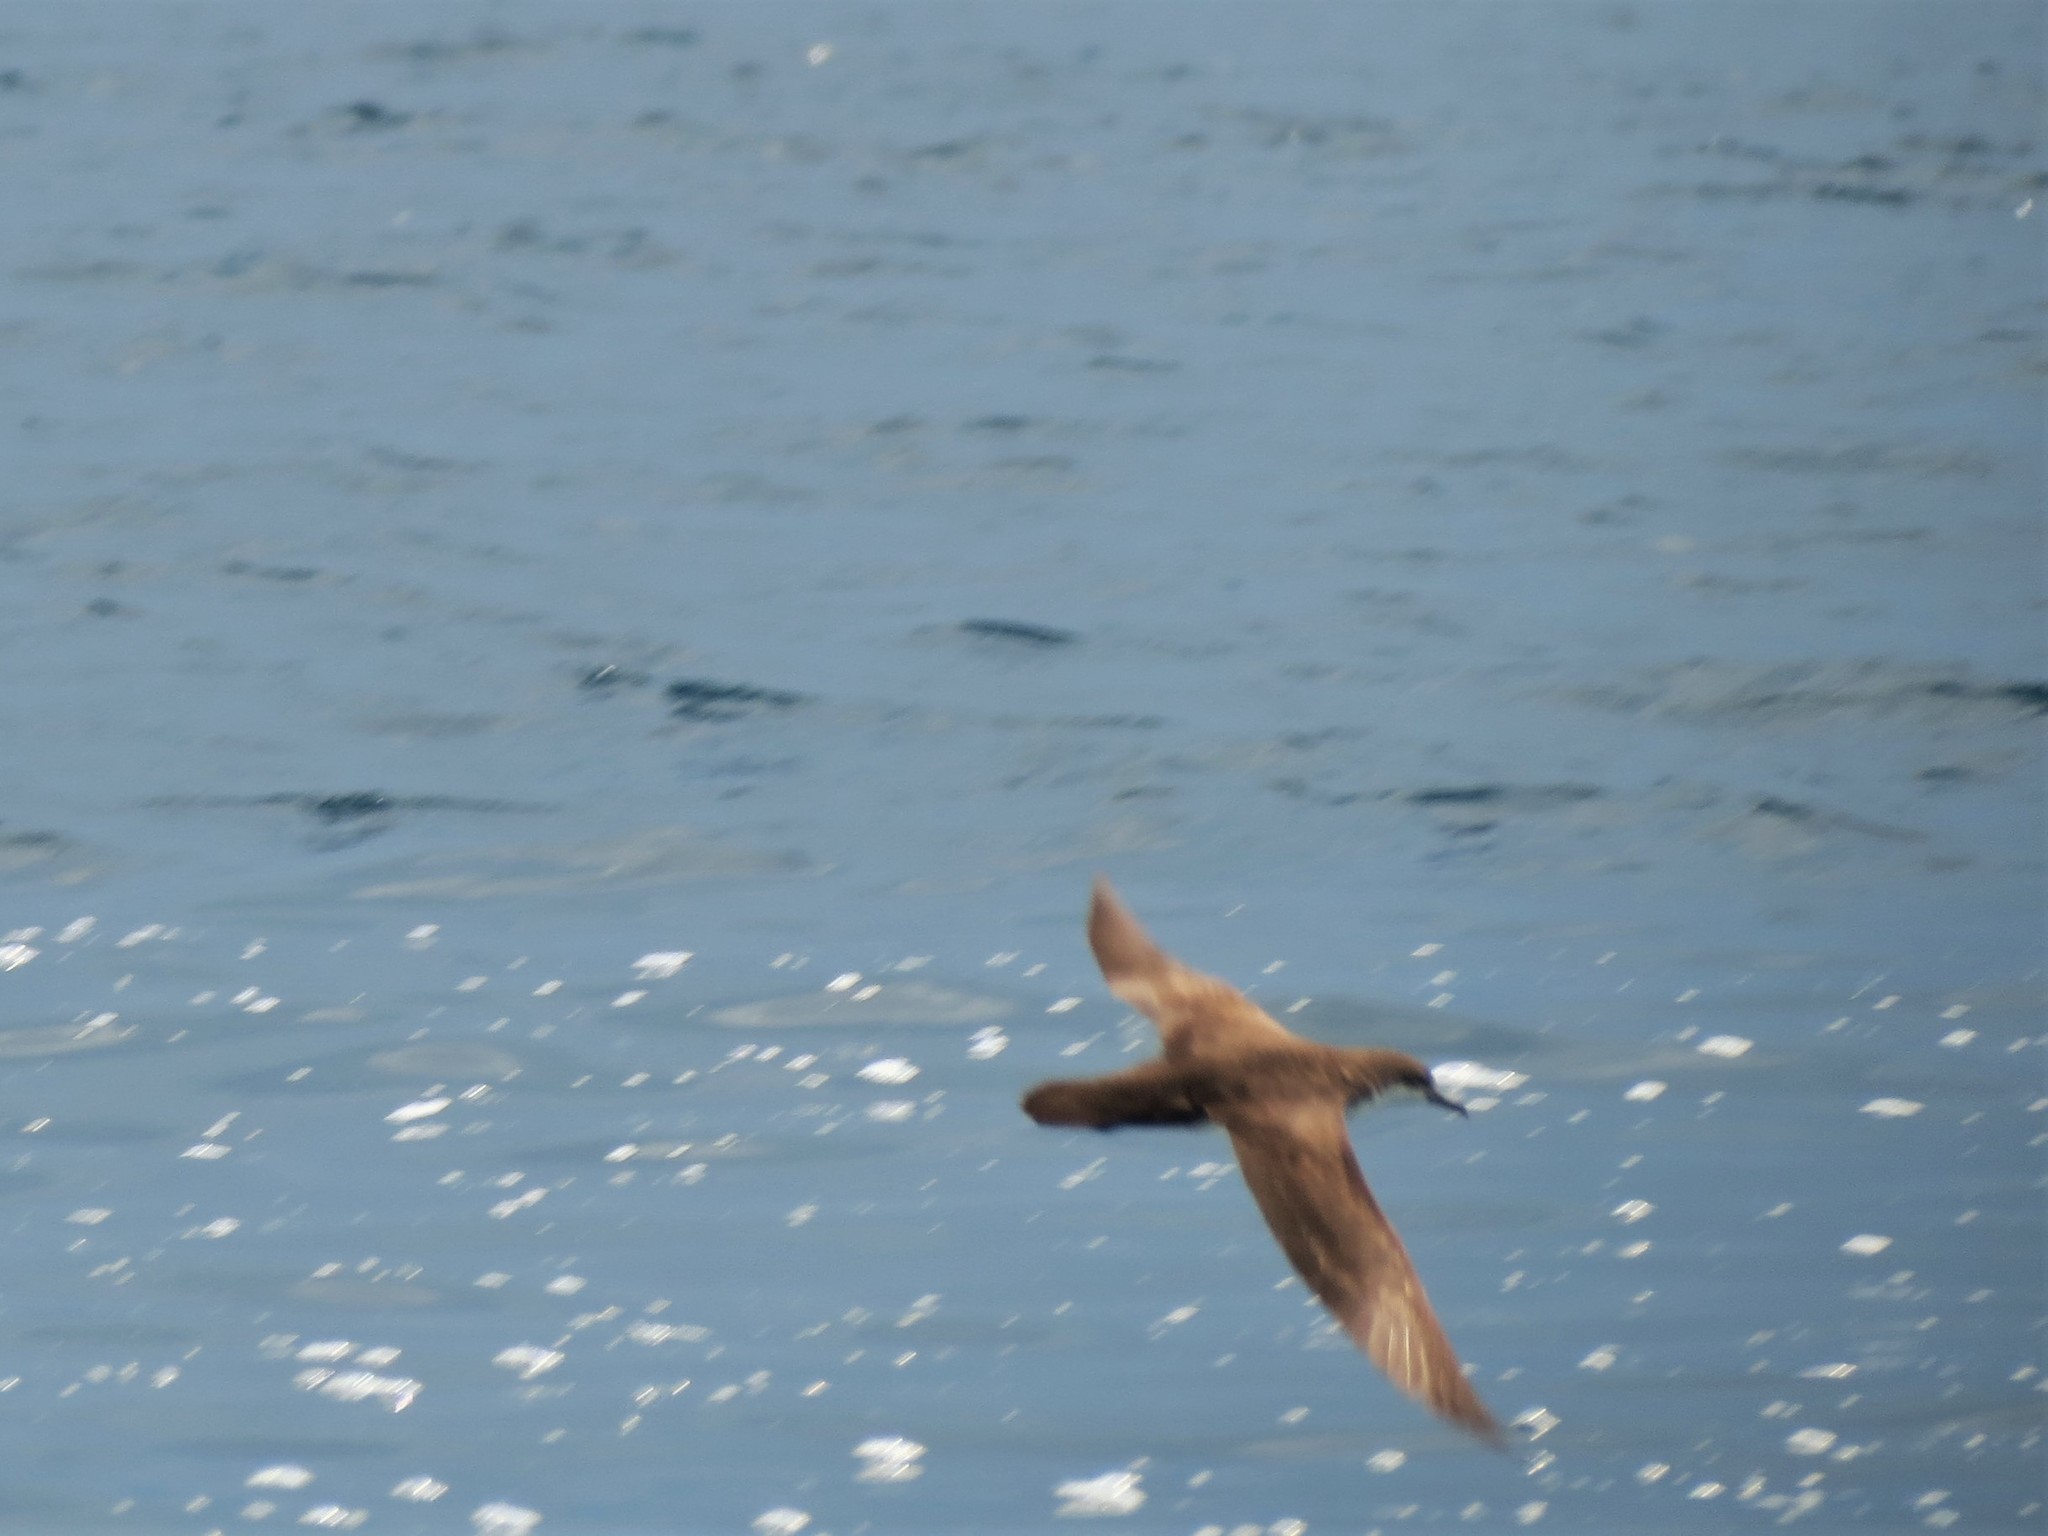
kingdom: Animalia
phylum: Chordata
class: Aves
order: Procellariiformes
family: Procellariidae
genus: Puffinus
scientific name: Puffinus subalaris
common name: Galapagos shearwater
